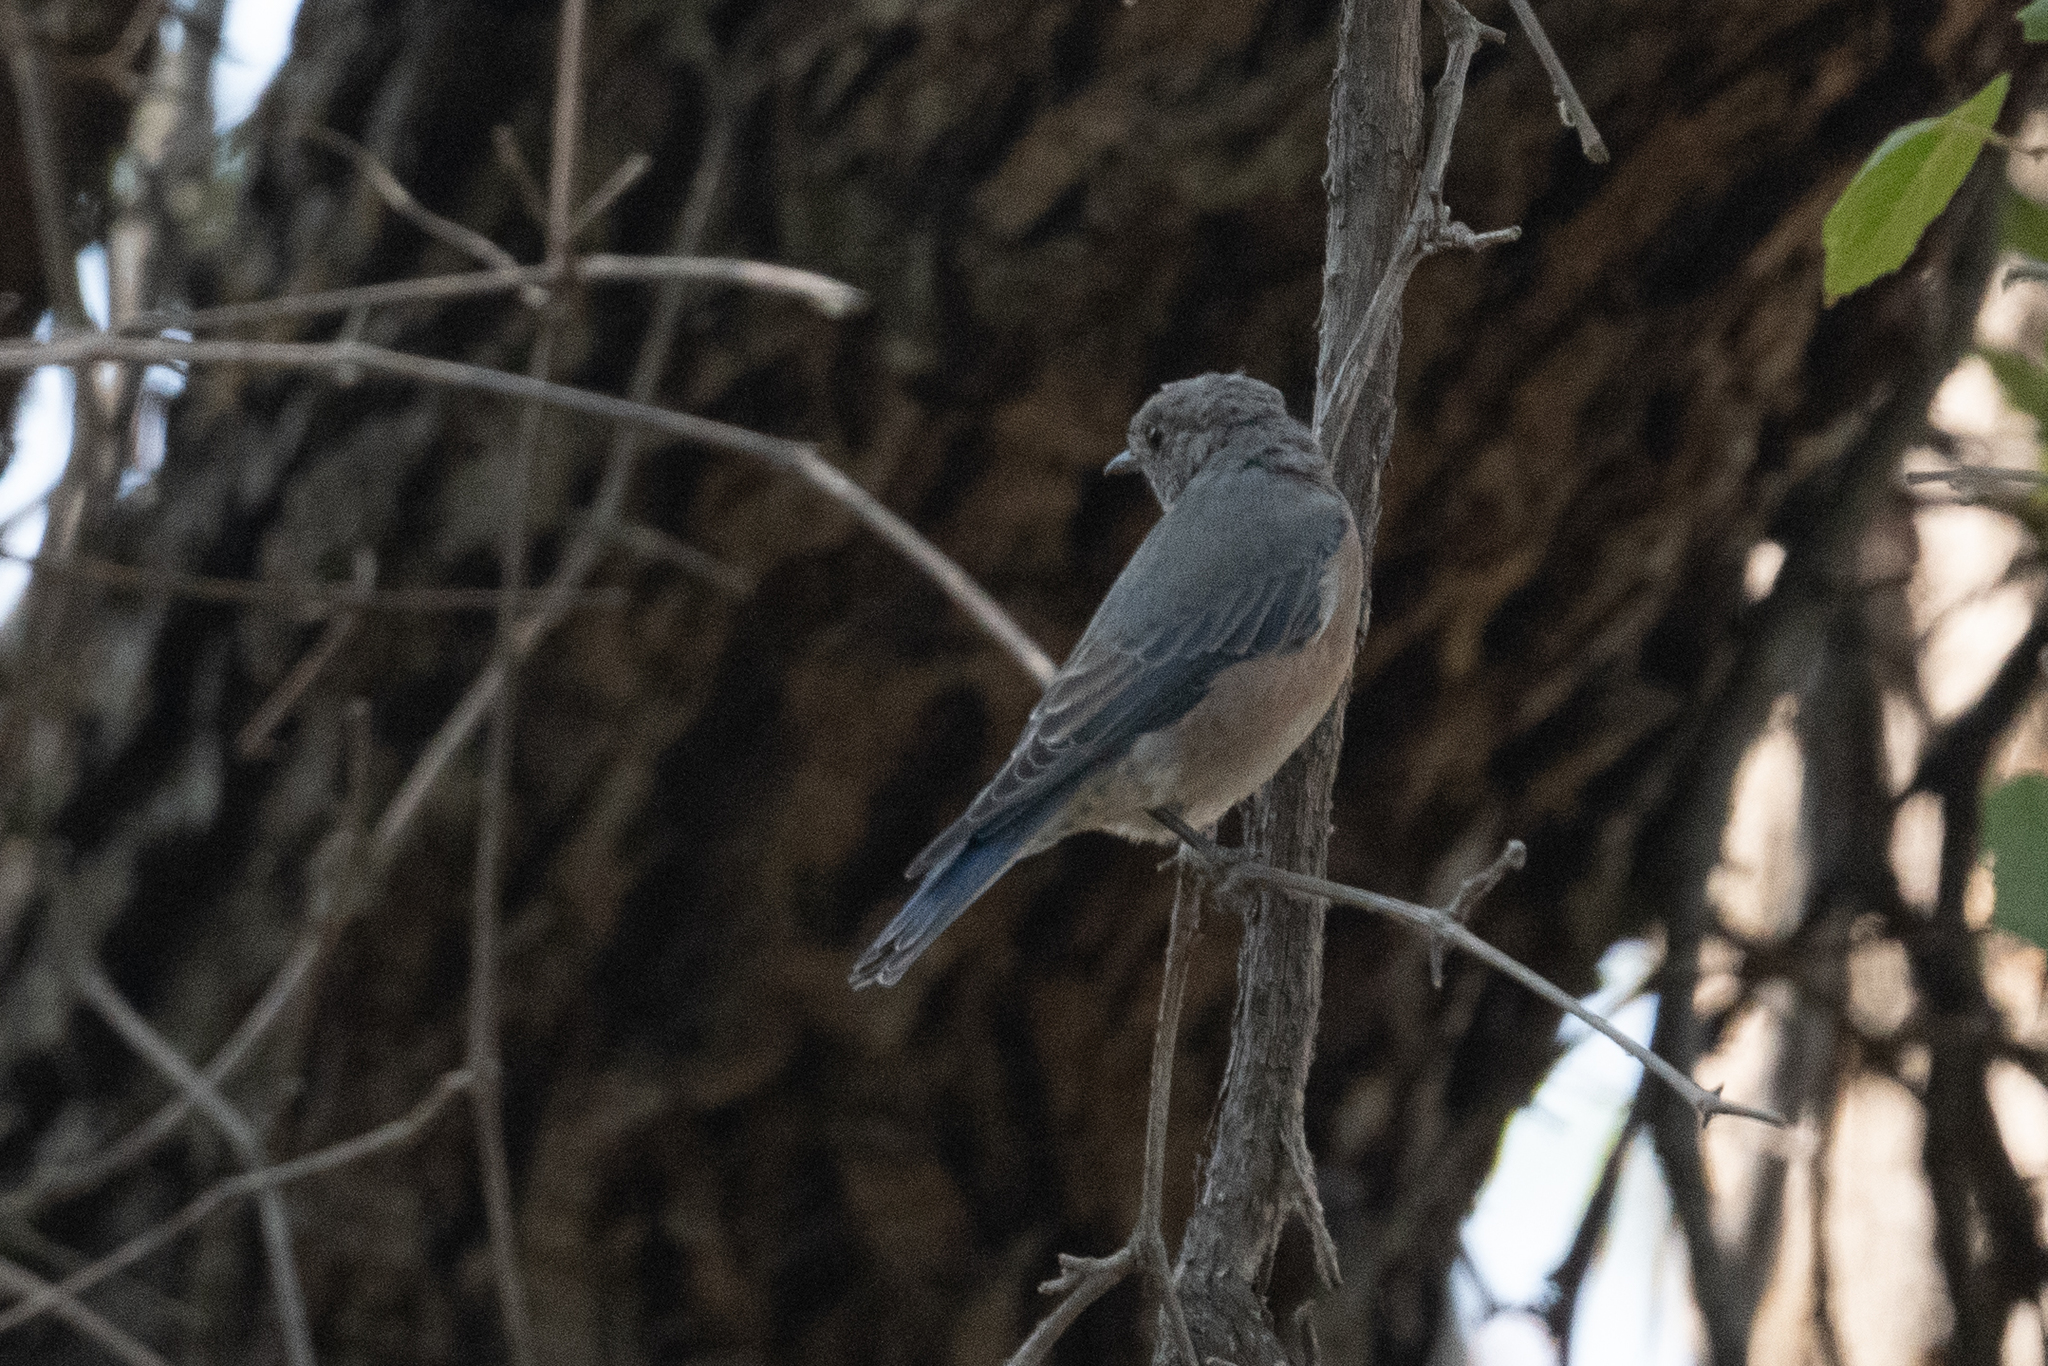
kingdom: Animalia
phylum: Chordata
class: Aves
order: Passeriformes
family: Turdidae
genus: Sialia
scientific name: Sialia mexicana
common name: Western bluebird
